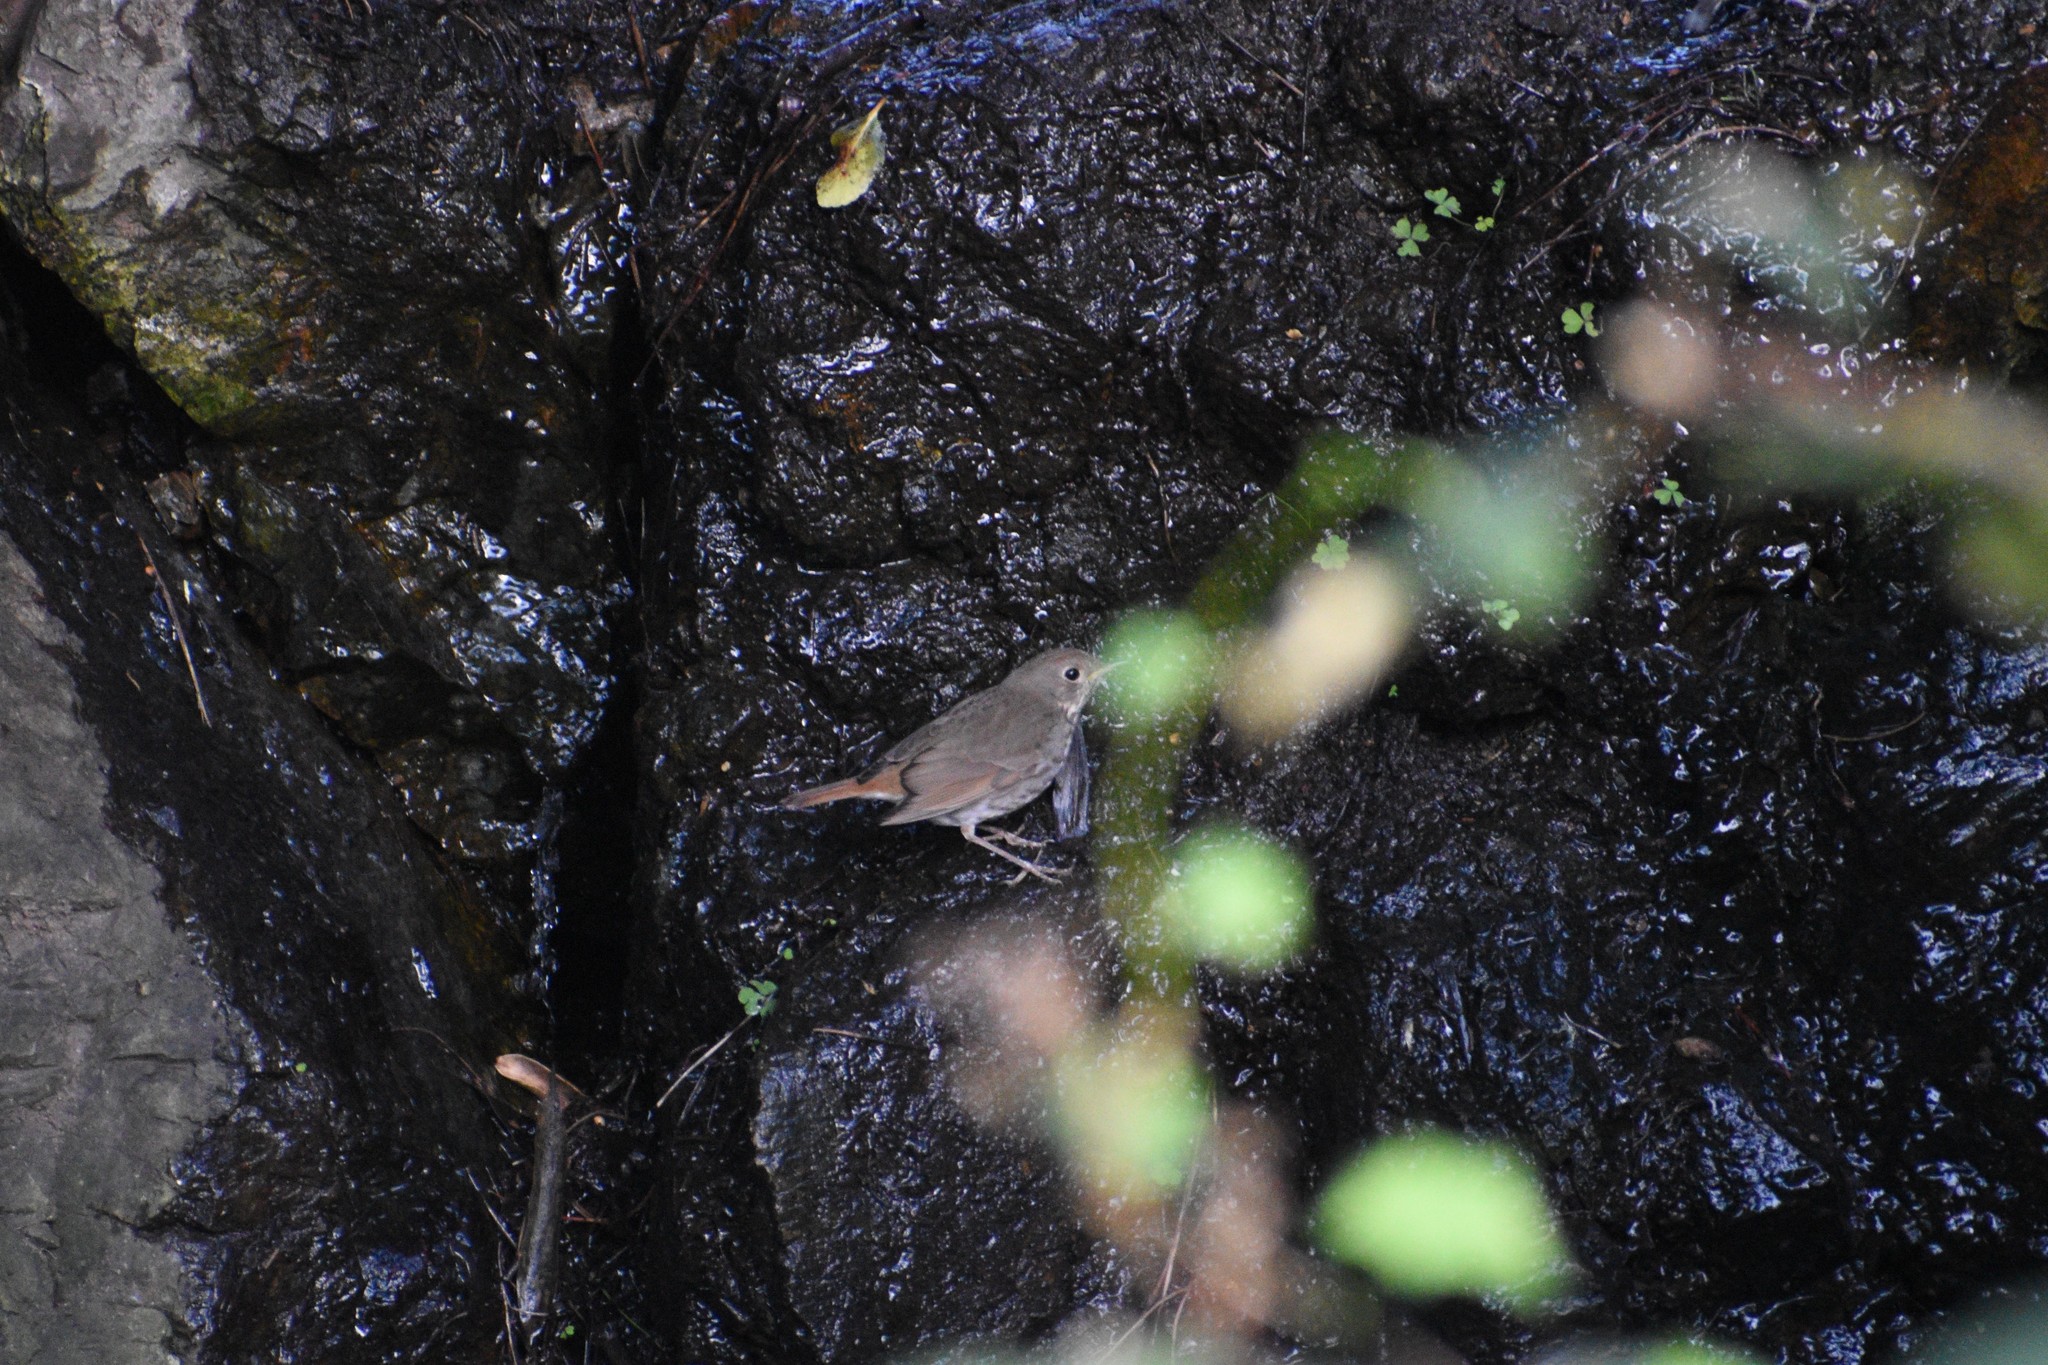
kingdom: Animalia
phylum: Chordata
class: Aves
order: Passeriformes
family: Turdidae
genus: Catharus
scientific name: Catharus guttatus
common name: Hermit thrush
